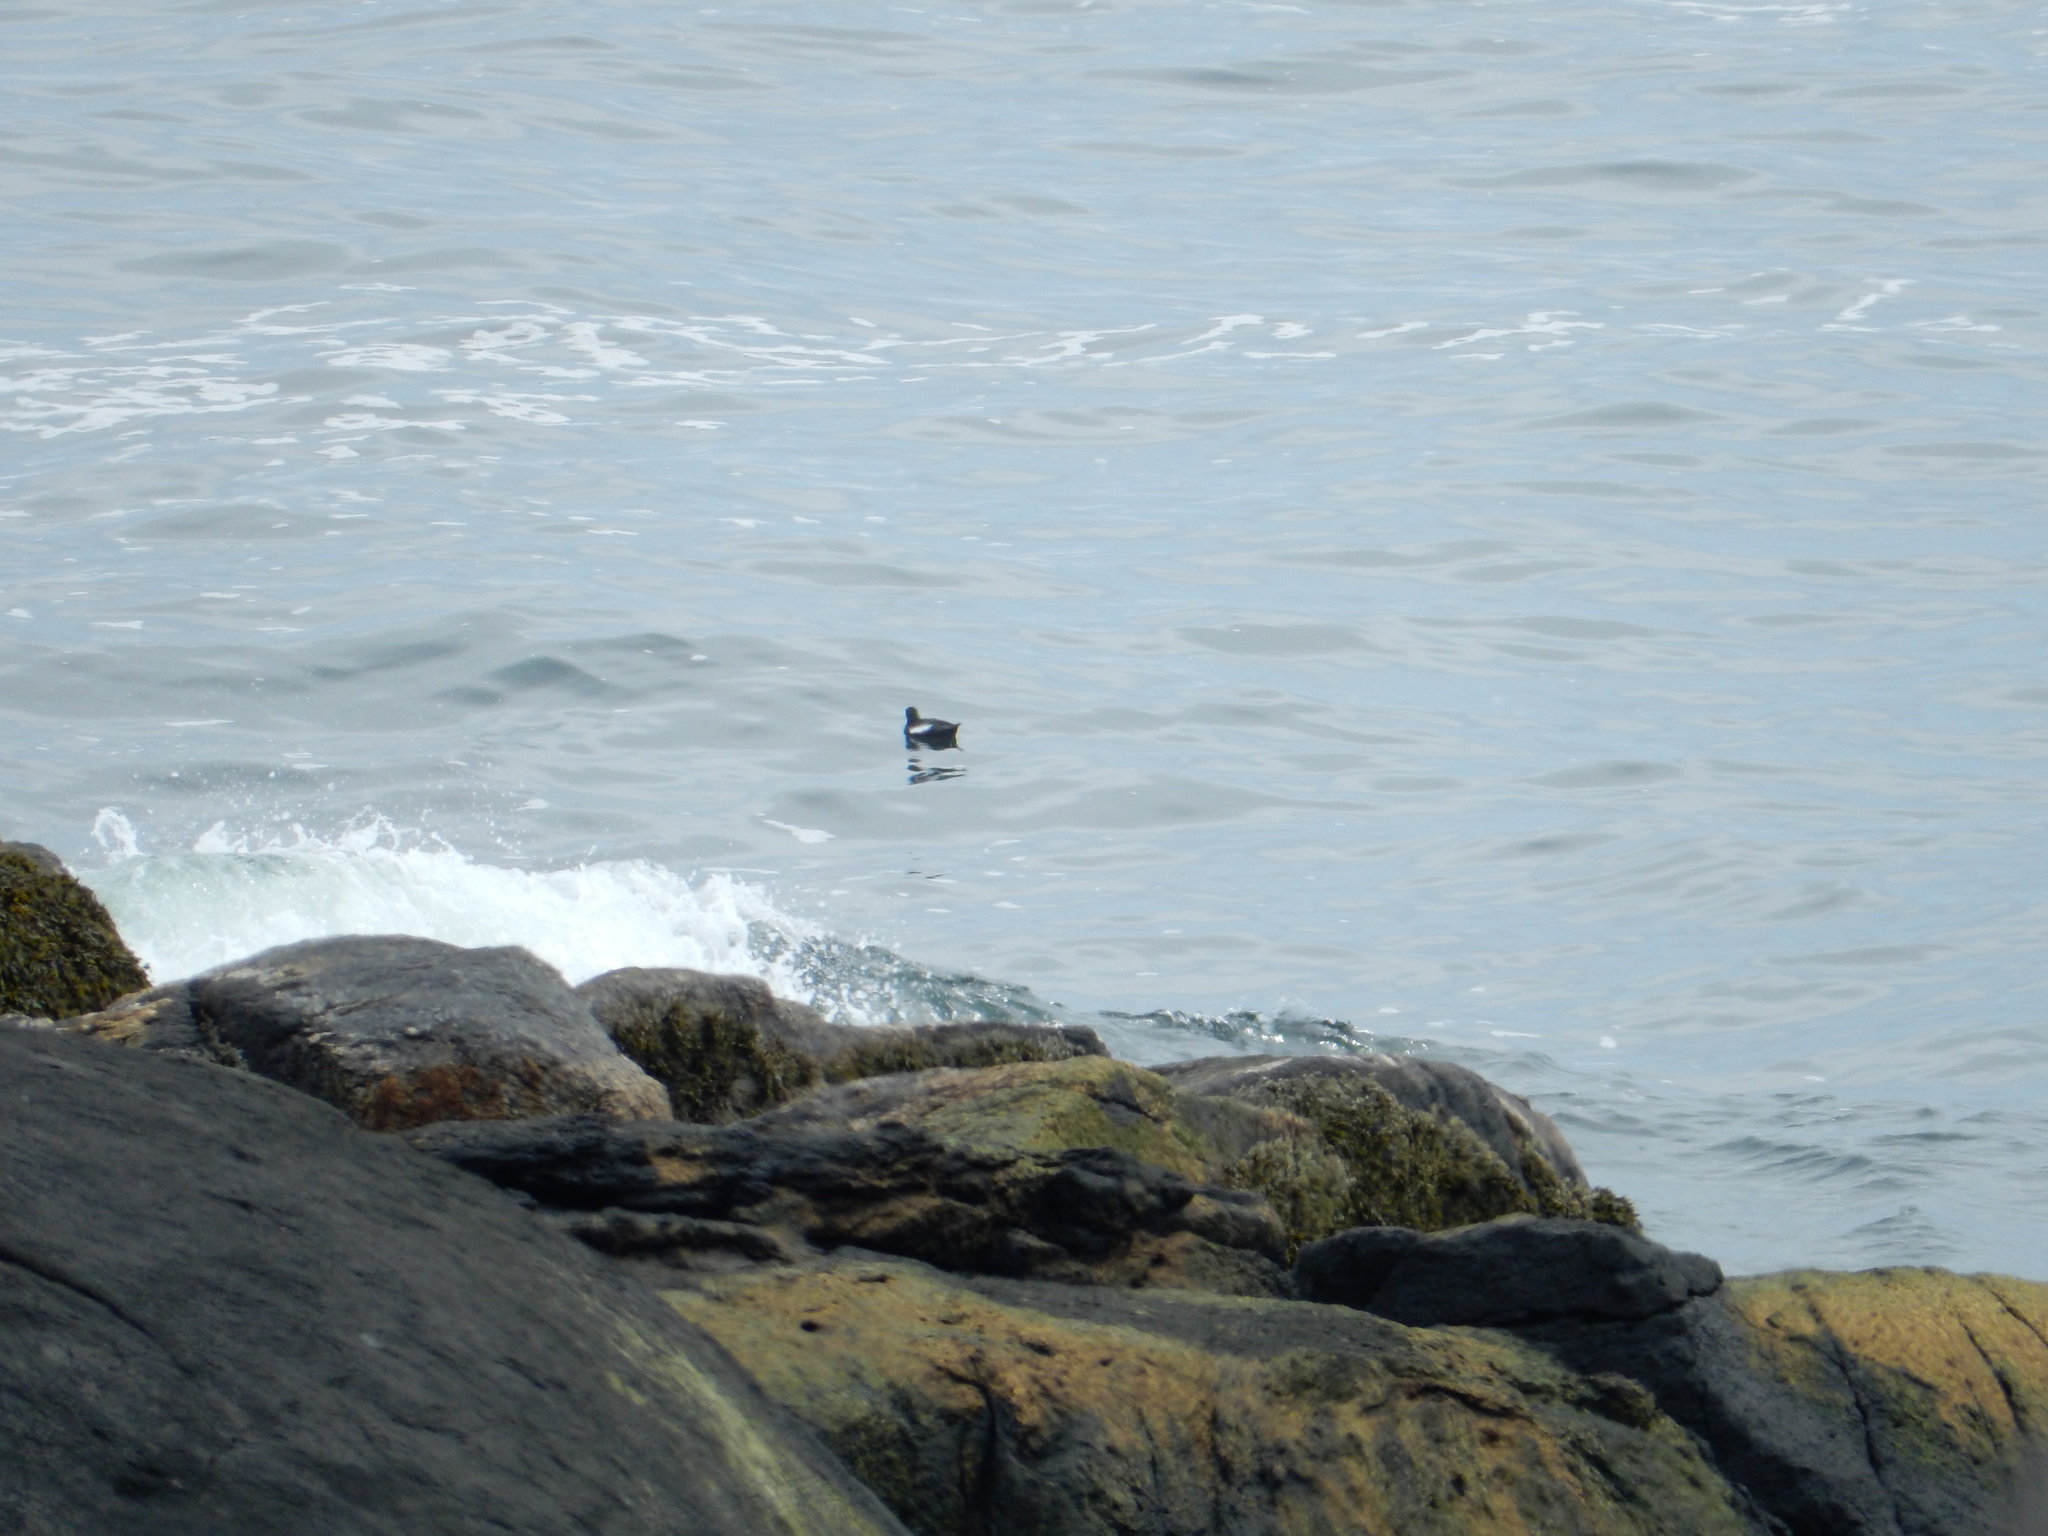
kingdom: Animalia
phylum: Chordata
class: Aves
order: Charadriiformes
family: Alcidae
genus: Cepphus
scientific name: Cepphus grylle
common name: Black guillemot
